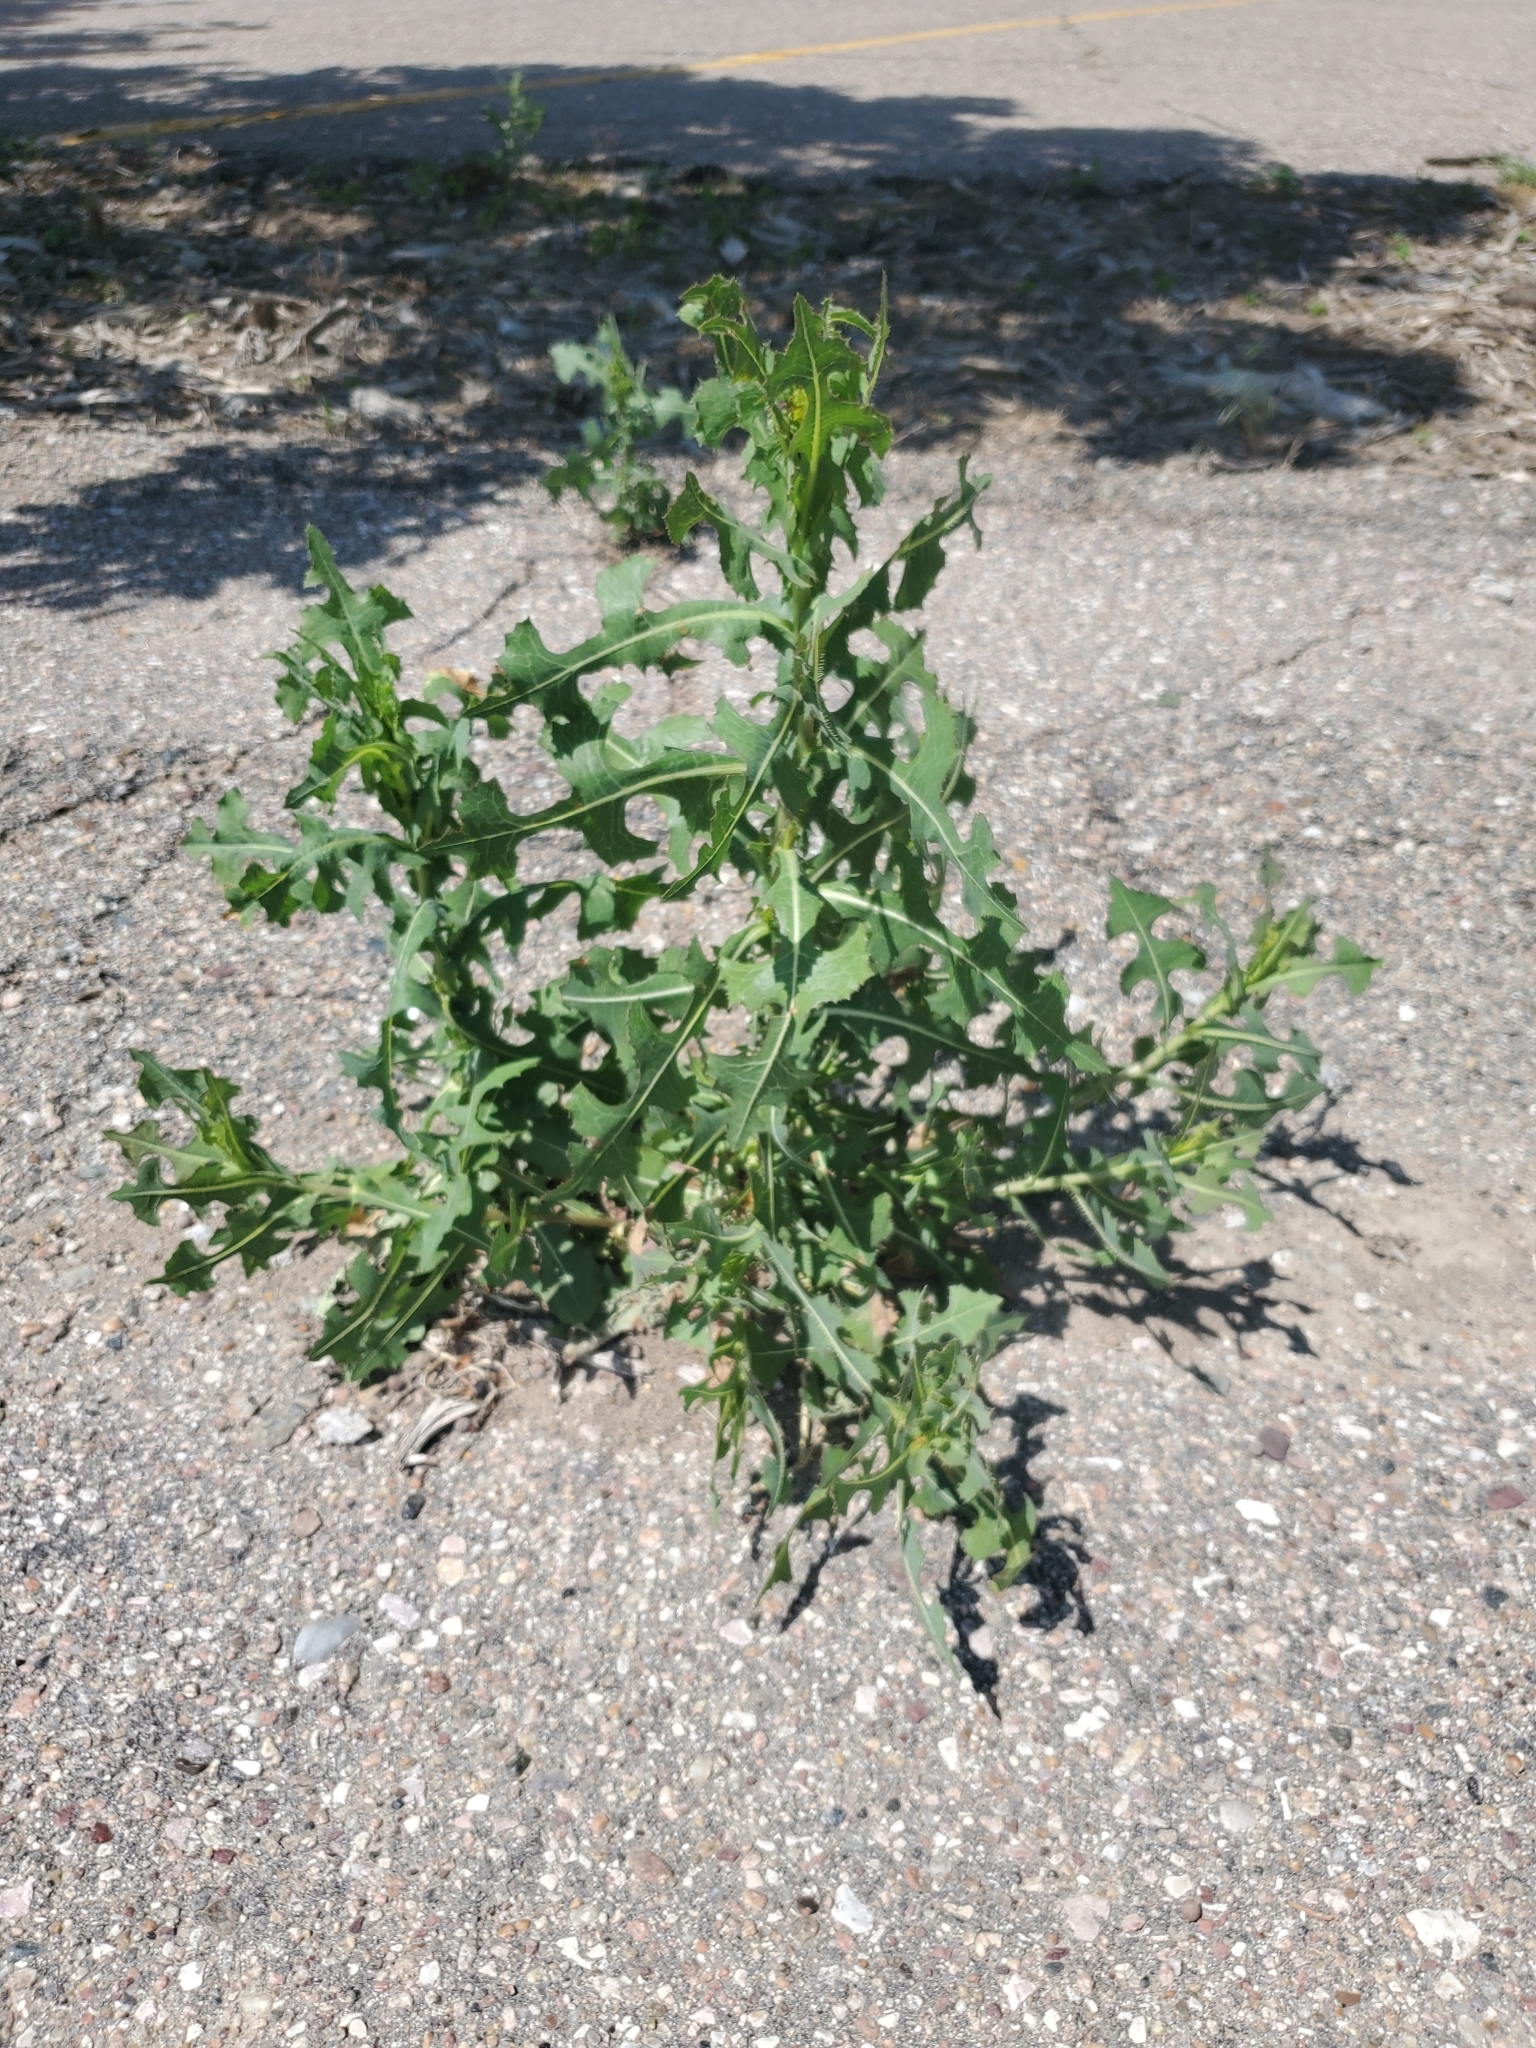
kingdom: Plantae
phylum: Tracheophyta
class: Magnoliopsida
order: Asterales
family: Asteraceae
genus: Lactuca
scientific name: Lactuca serriola
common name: Prickly lettuce
